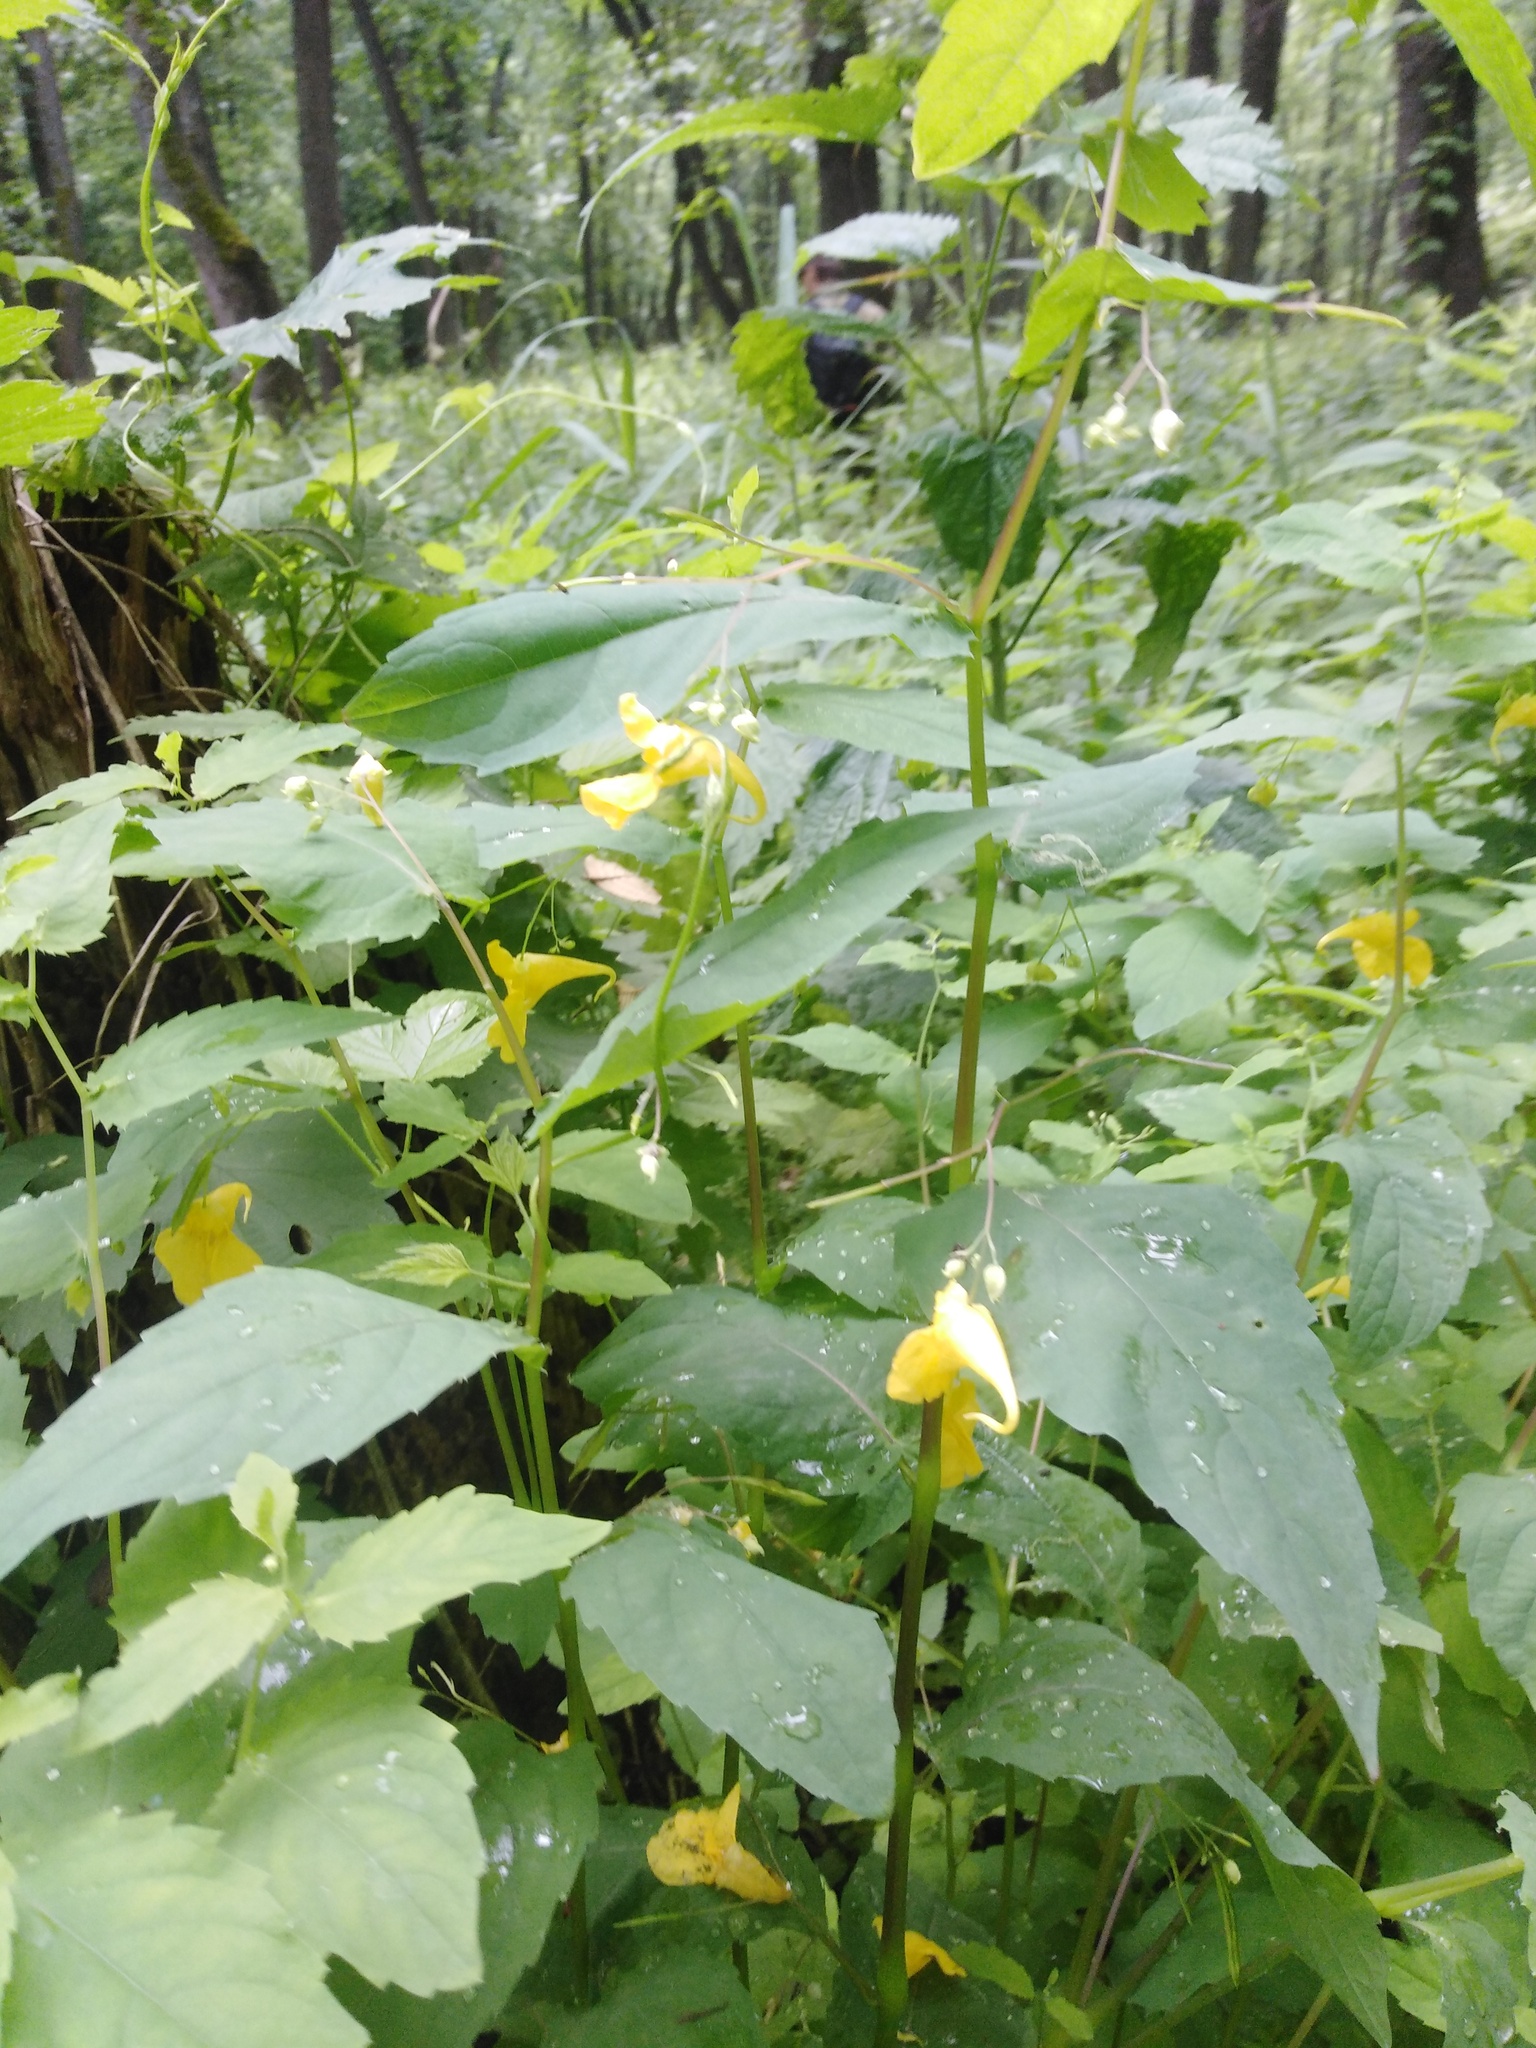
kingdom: Plantae
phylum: Tracheophyta
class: Magnoliopsida
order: Ericales
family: Balsaminaceae
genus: Impatiens
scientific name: Impatiens noli-tangere
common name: Touch-me-not balsam
